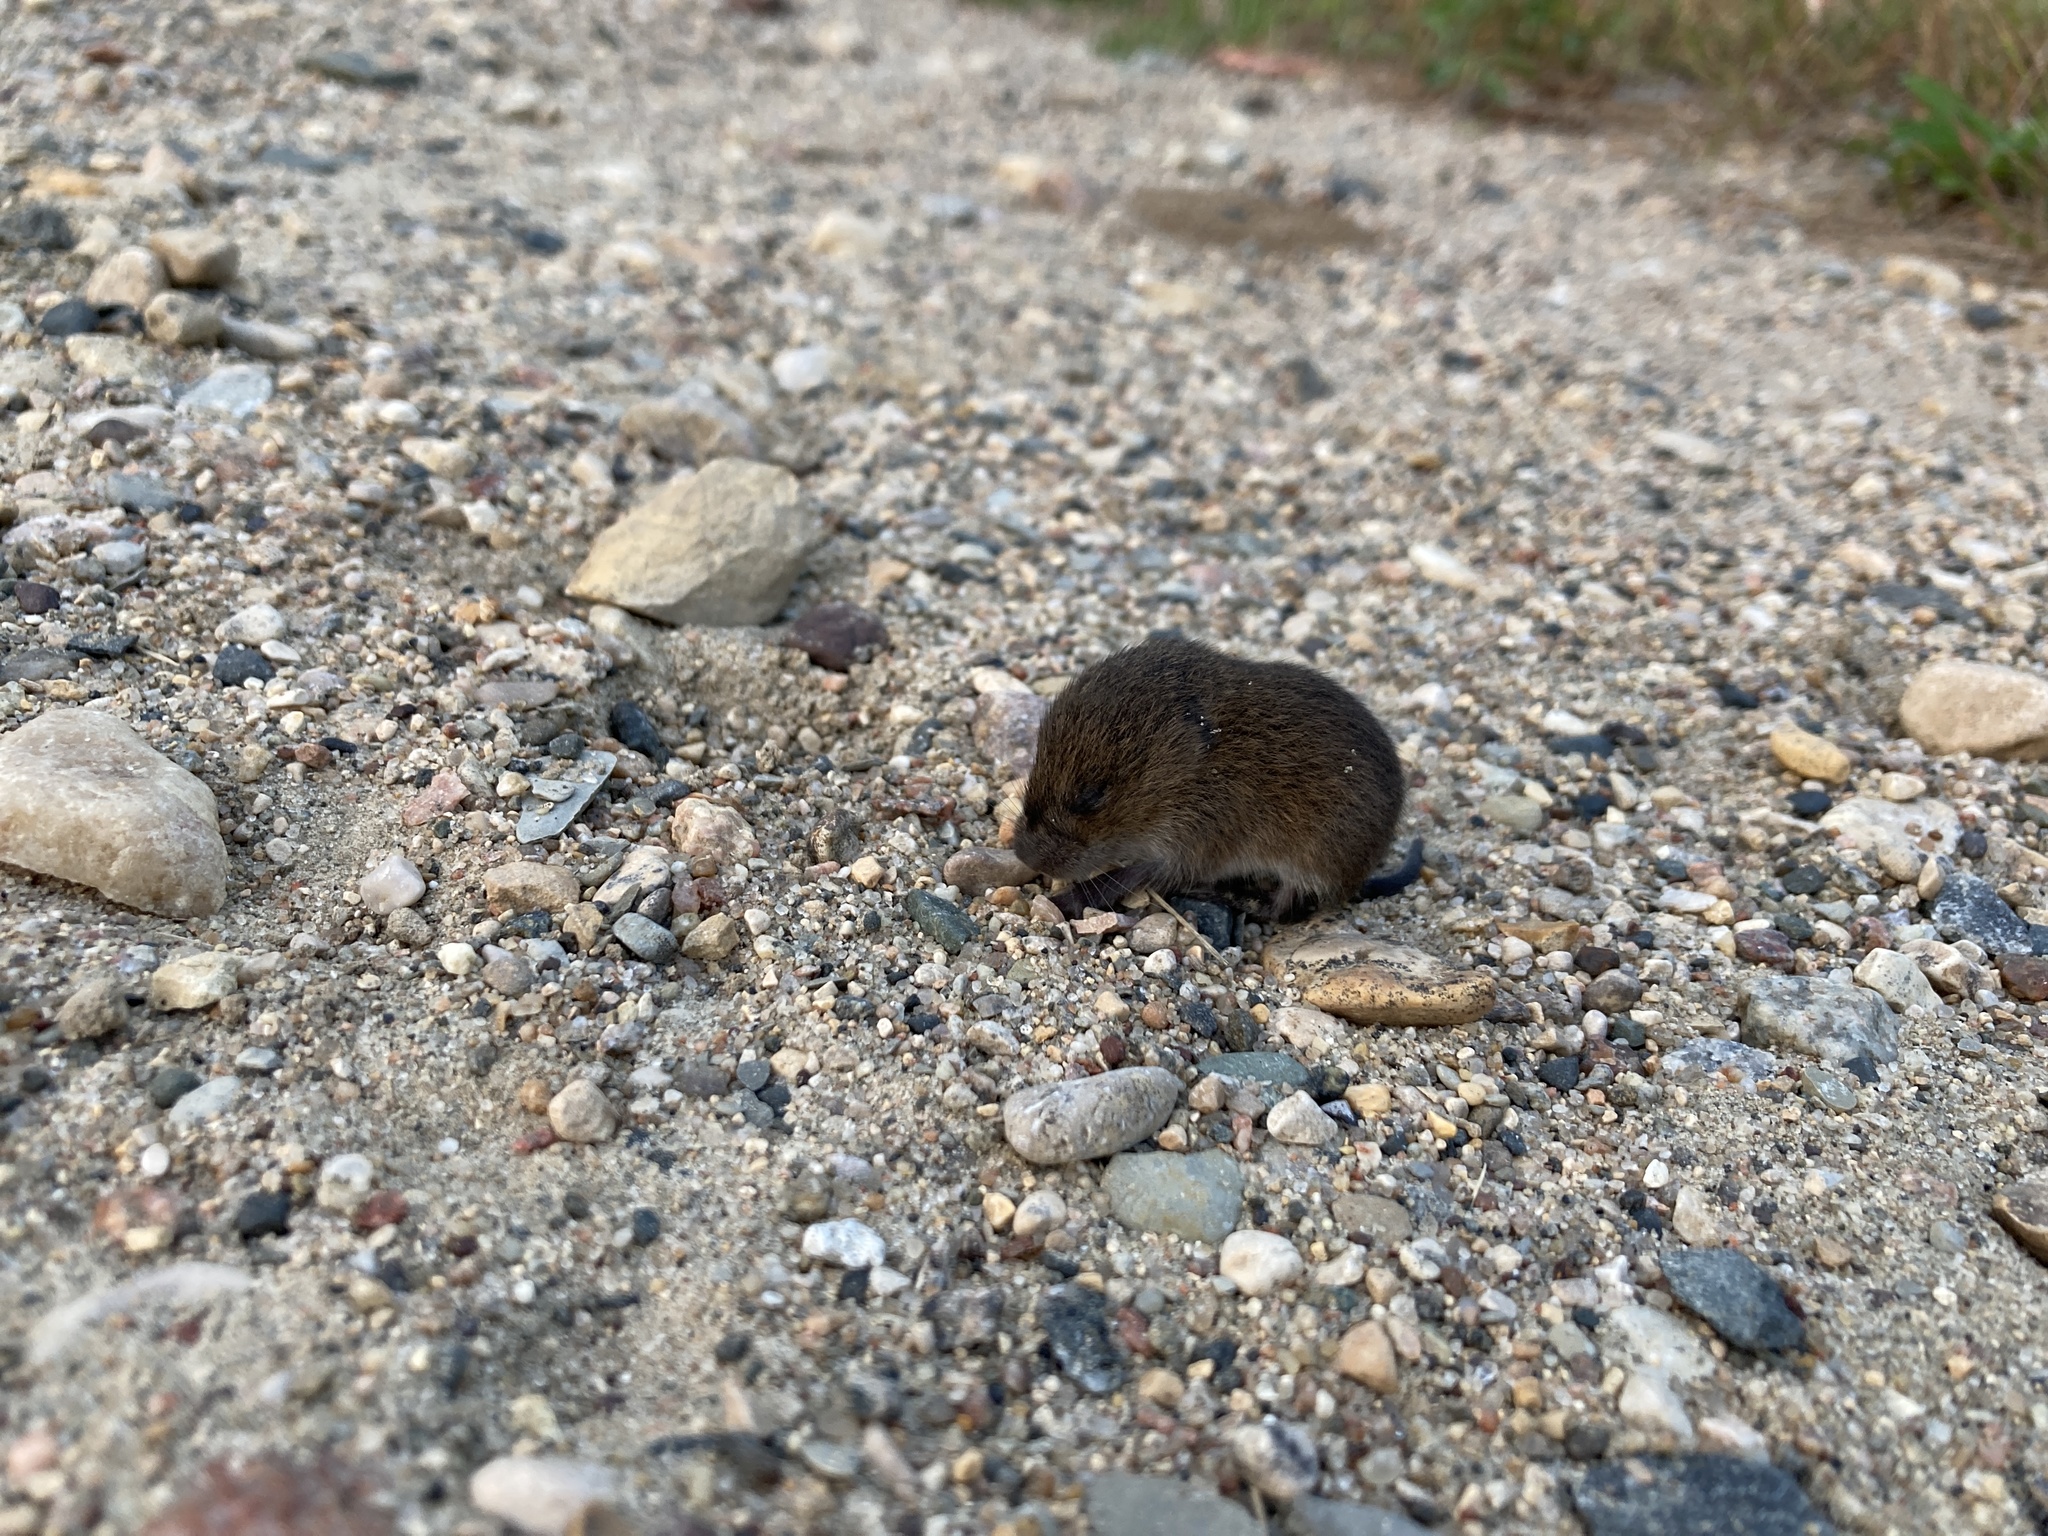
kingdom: Animalia
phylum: Chordata
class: Mammalia
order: Rodentia
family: Cricetidae
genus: Microtus
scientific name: Microtus pennsylvanicus
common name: Meadow vole
